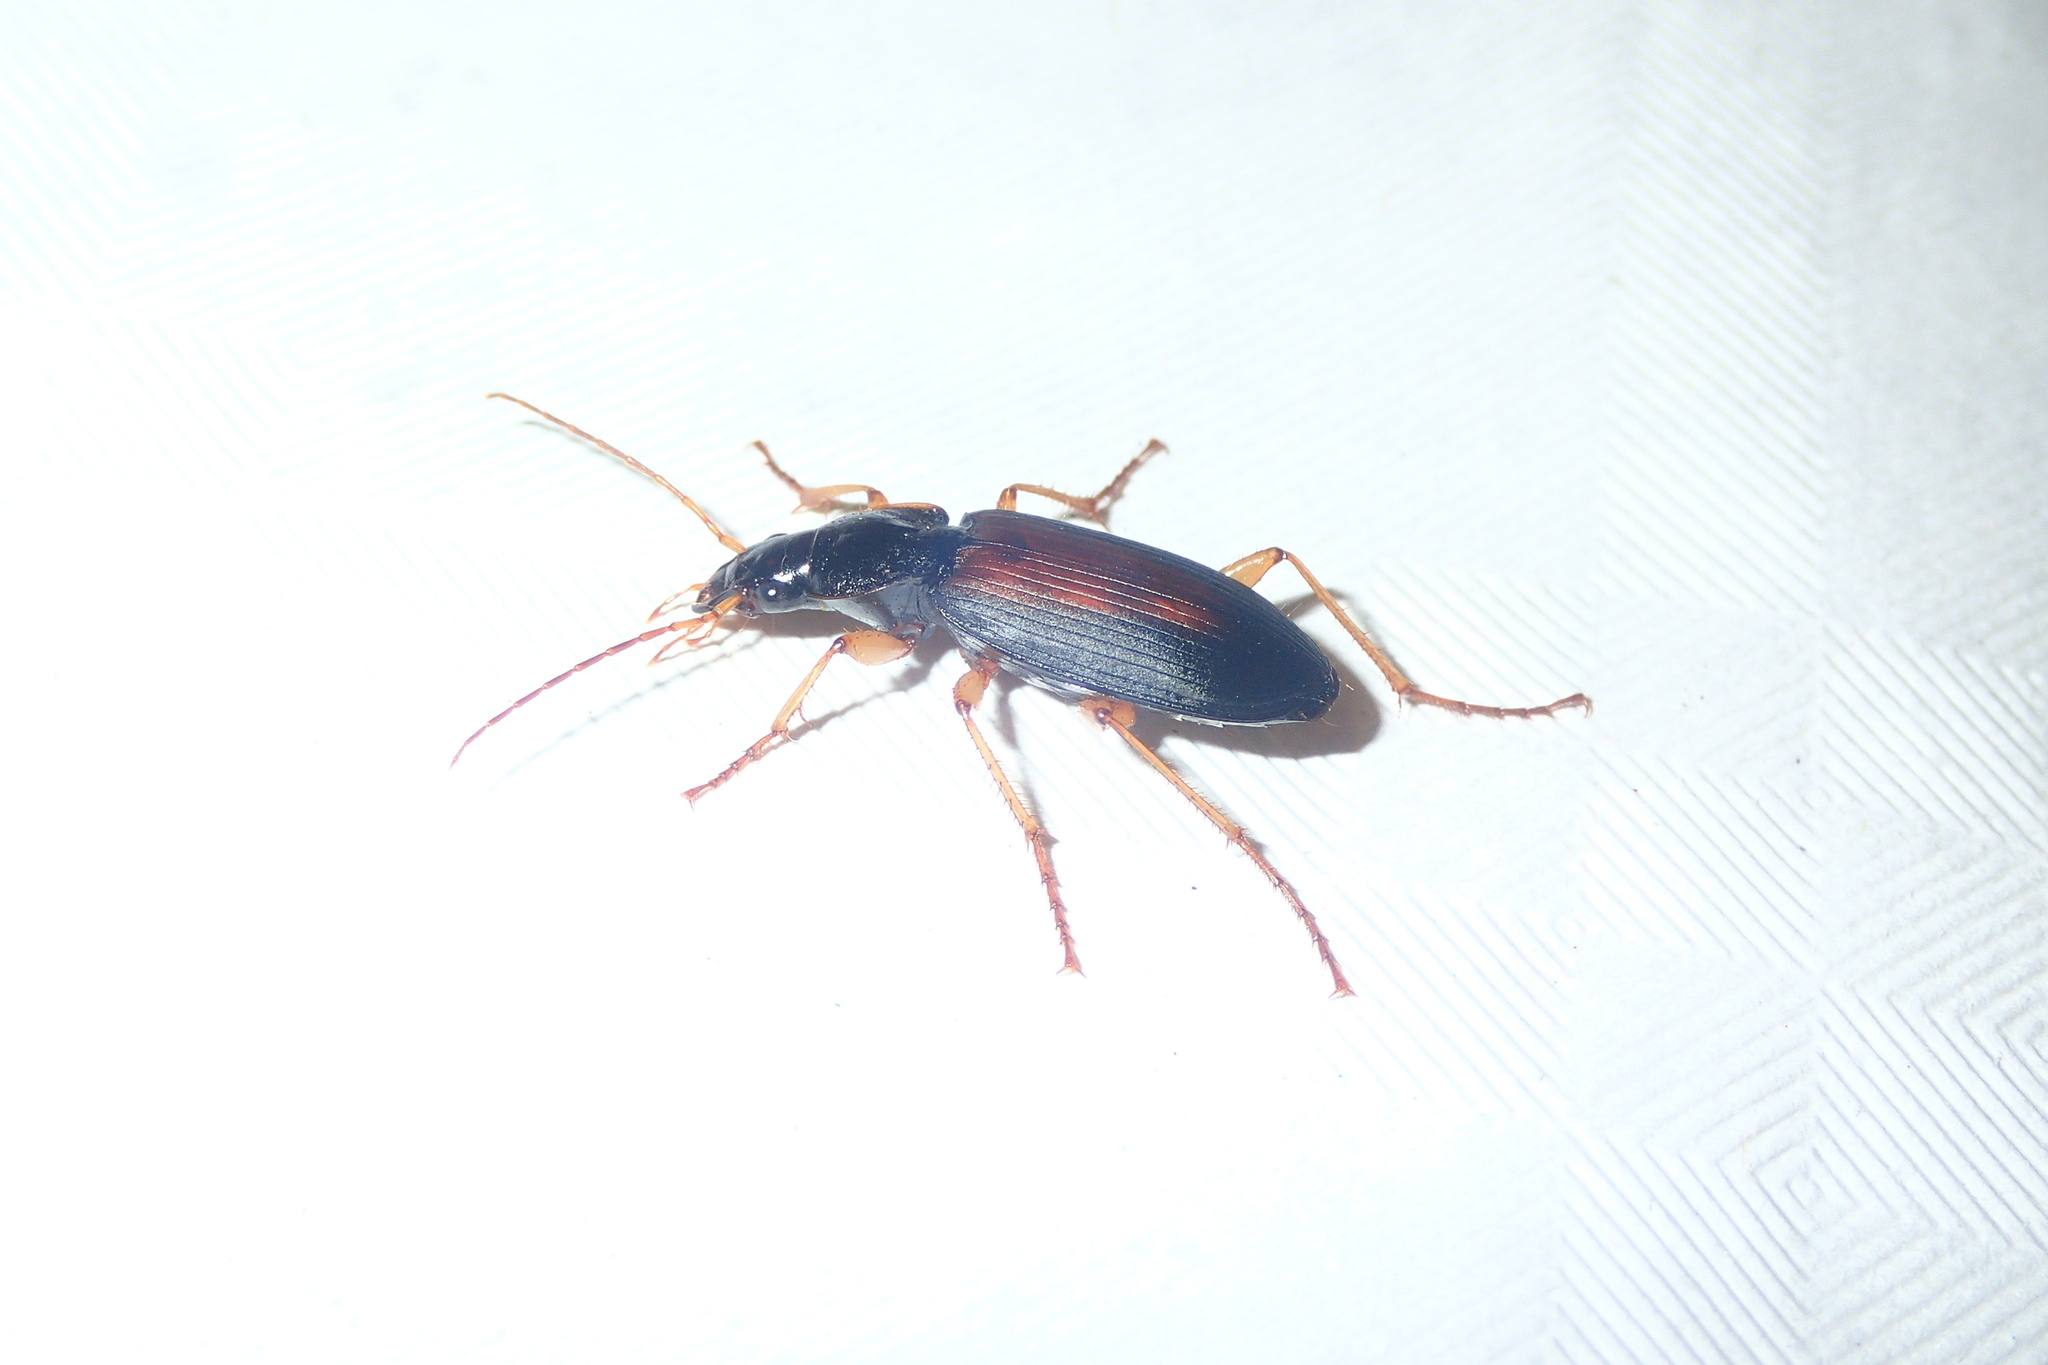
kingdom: Animalia
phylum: Arthropoda
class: Insecta
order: Coleoptera
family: Carabidae
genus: Dolichus
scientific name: Dolichus halensis
